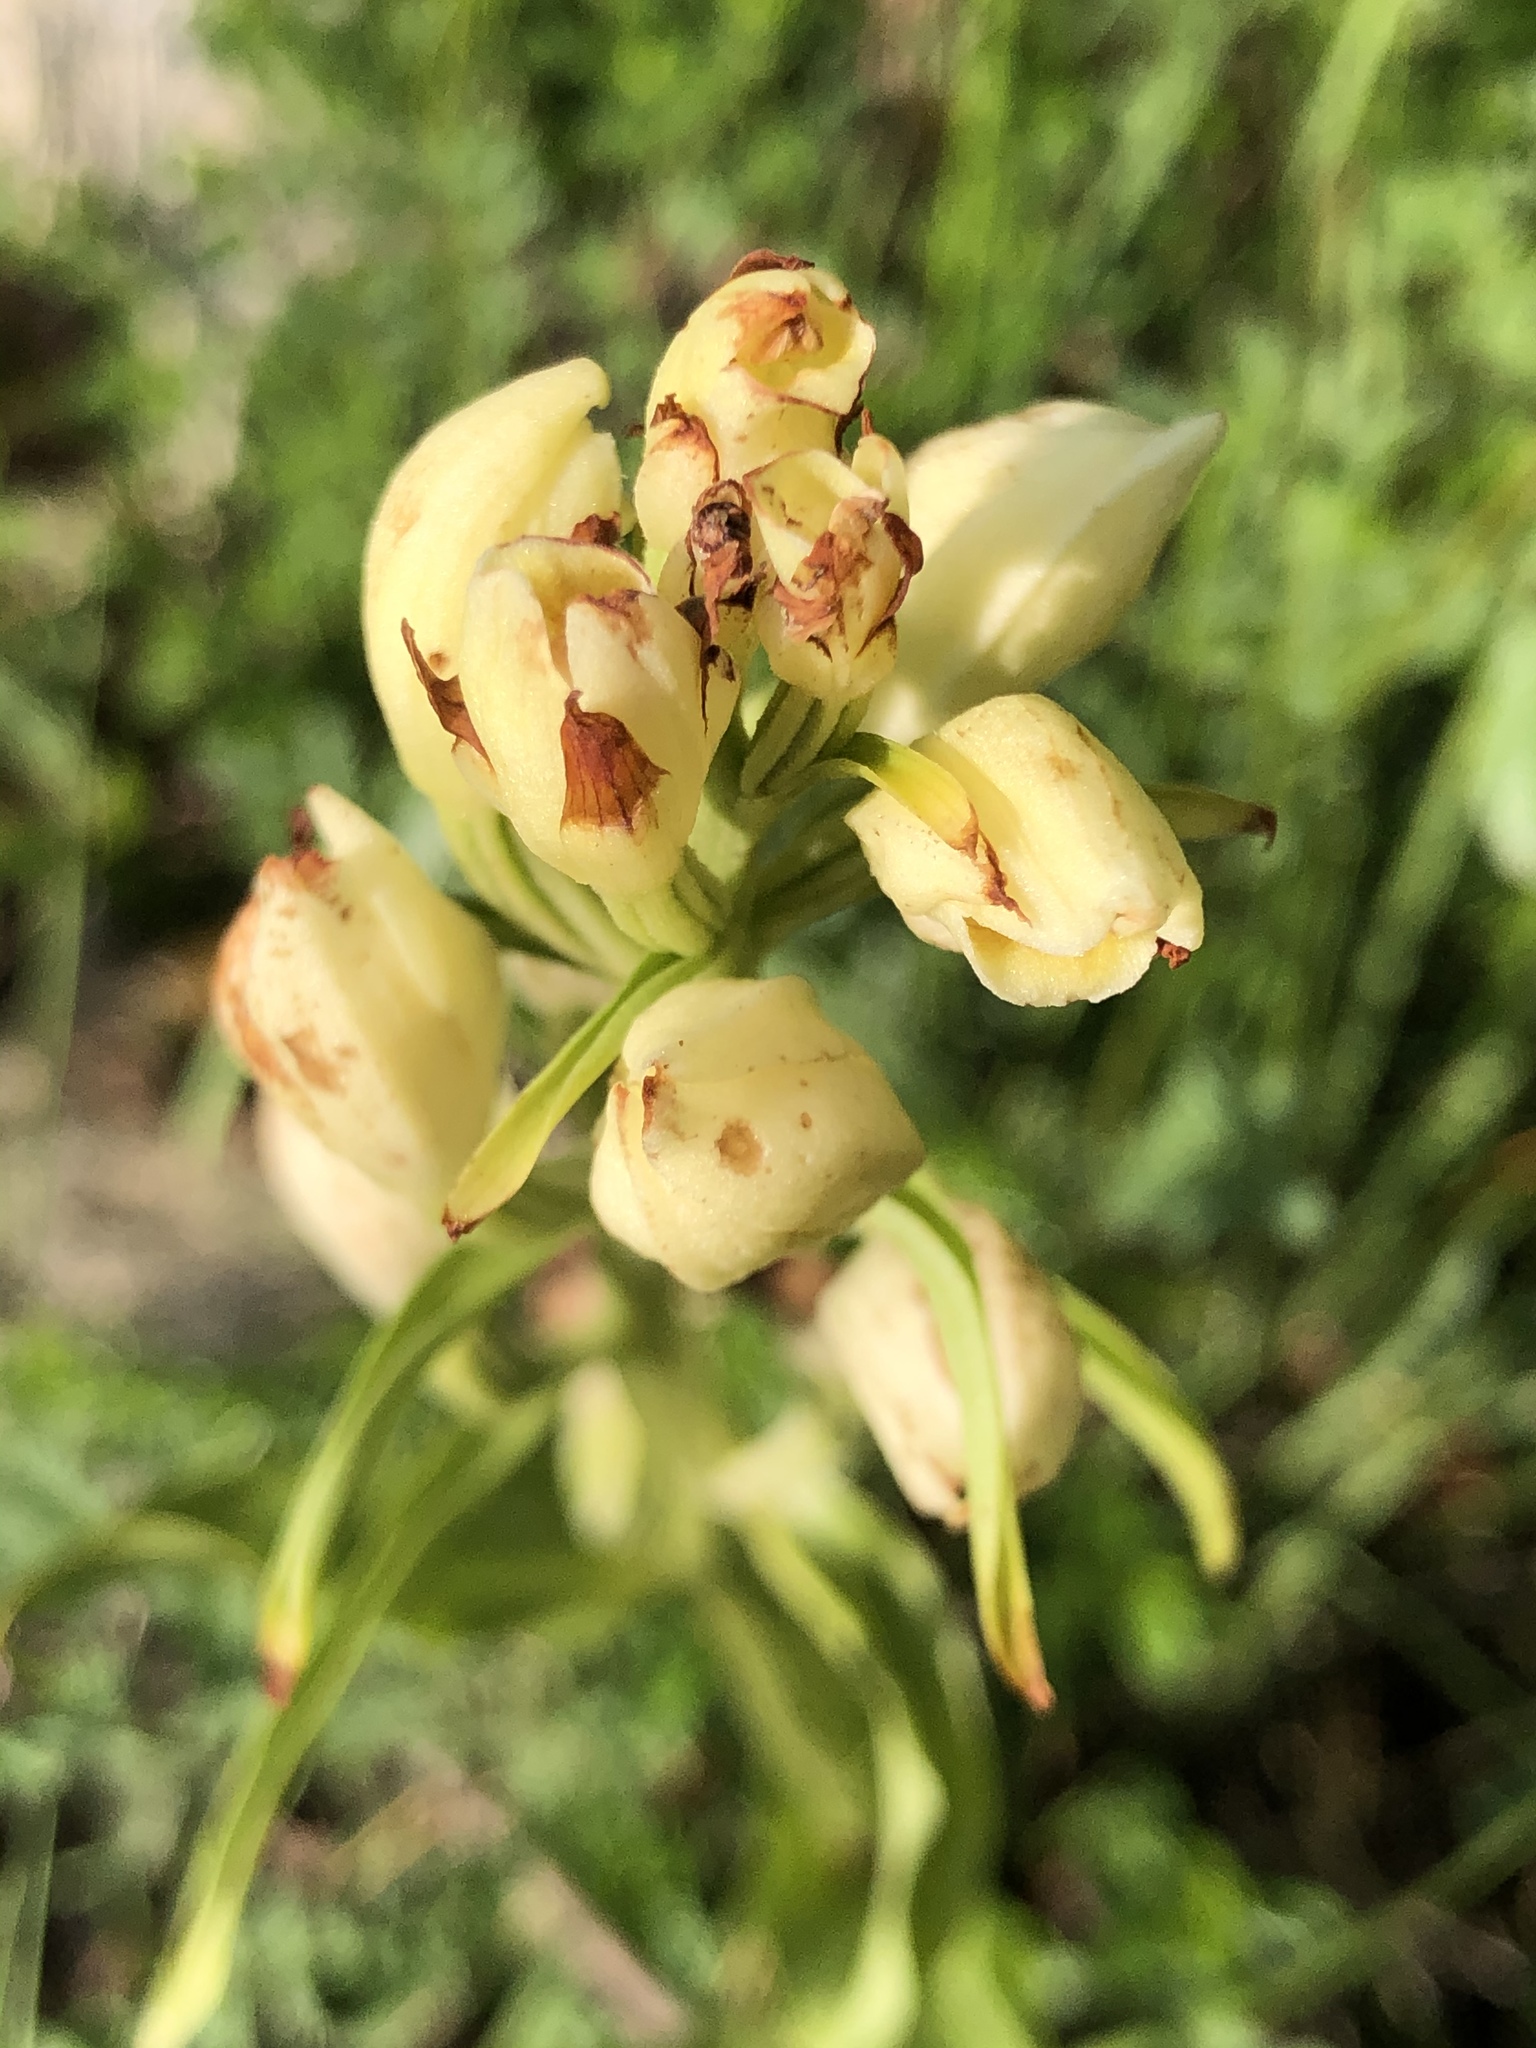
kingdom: Plantae
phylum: Tracheophyta
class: Liliopsida
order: Asparagales
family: Orchidaceae
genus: Cephalanthera
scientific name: Cephalanthera damasonium
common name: White helleborine
